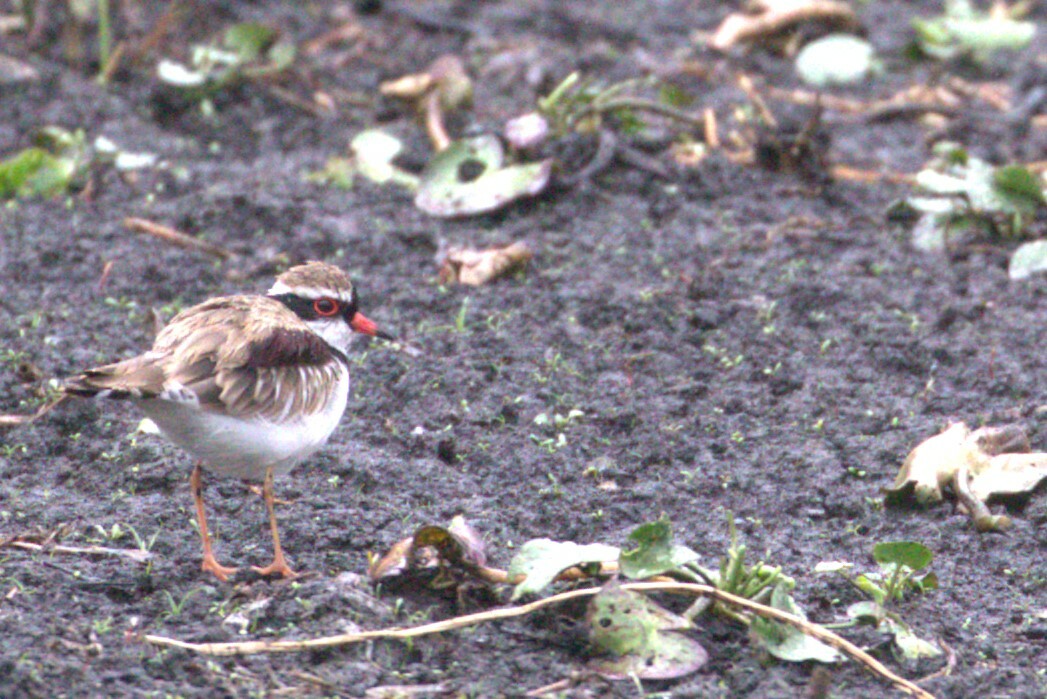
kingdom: Animalia
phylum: Chordata
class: Aves
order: Charadriiformes
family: Charadriidae
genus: Elseyornis
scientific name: Elseyornis melanops
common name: Black-fronted dotterel
